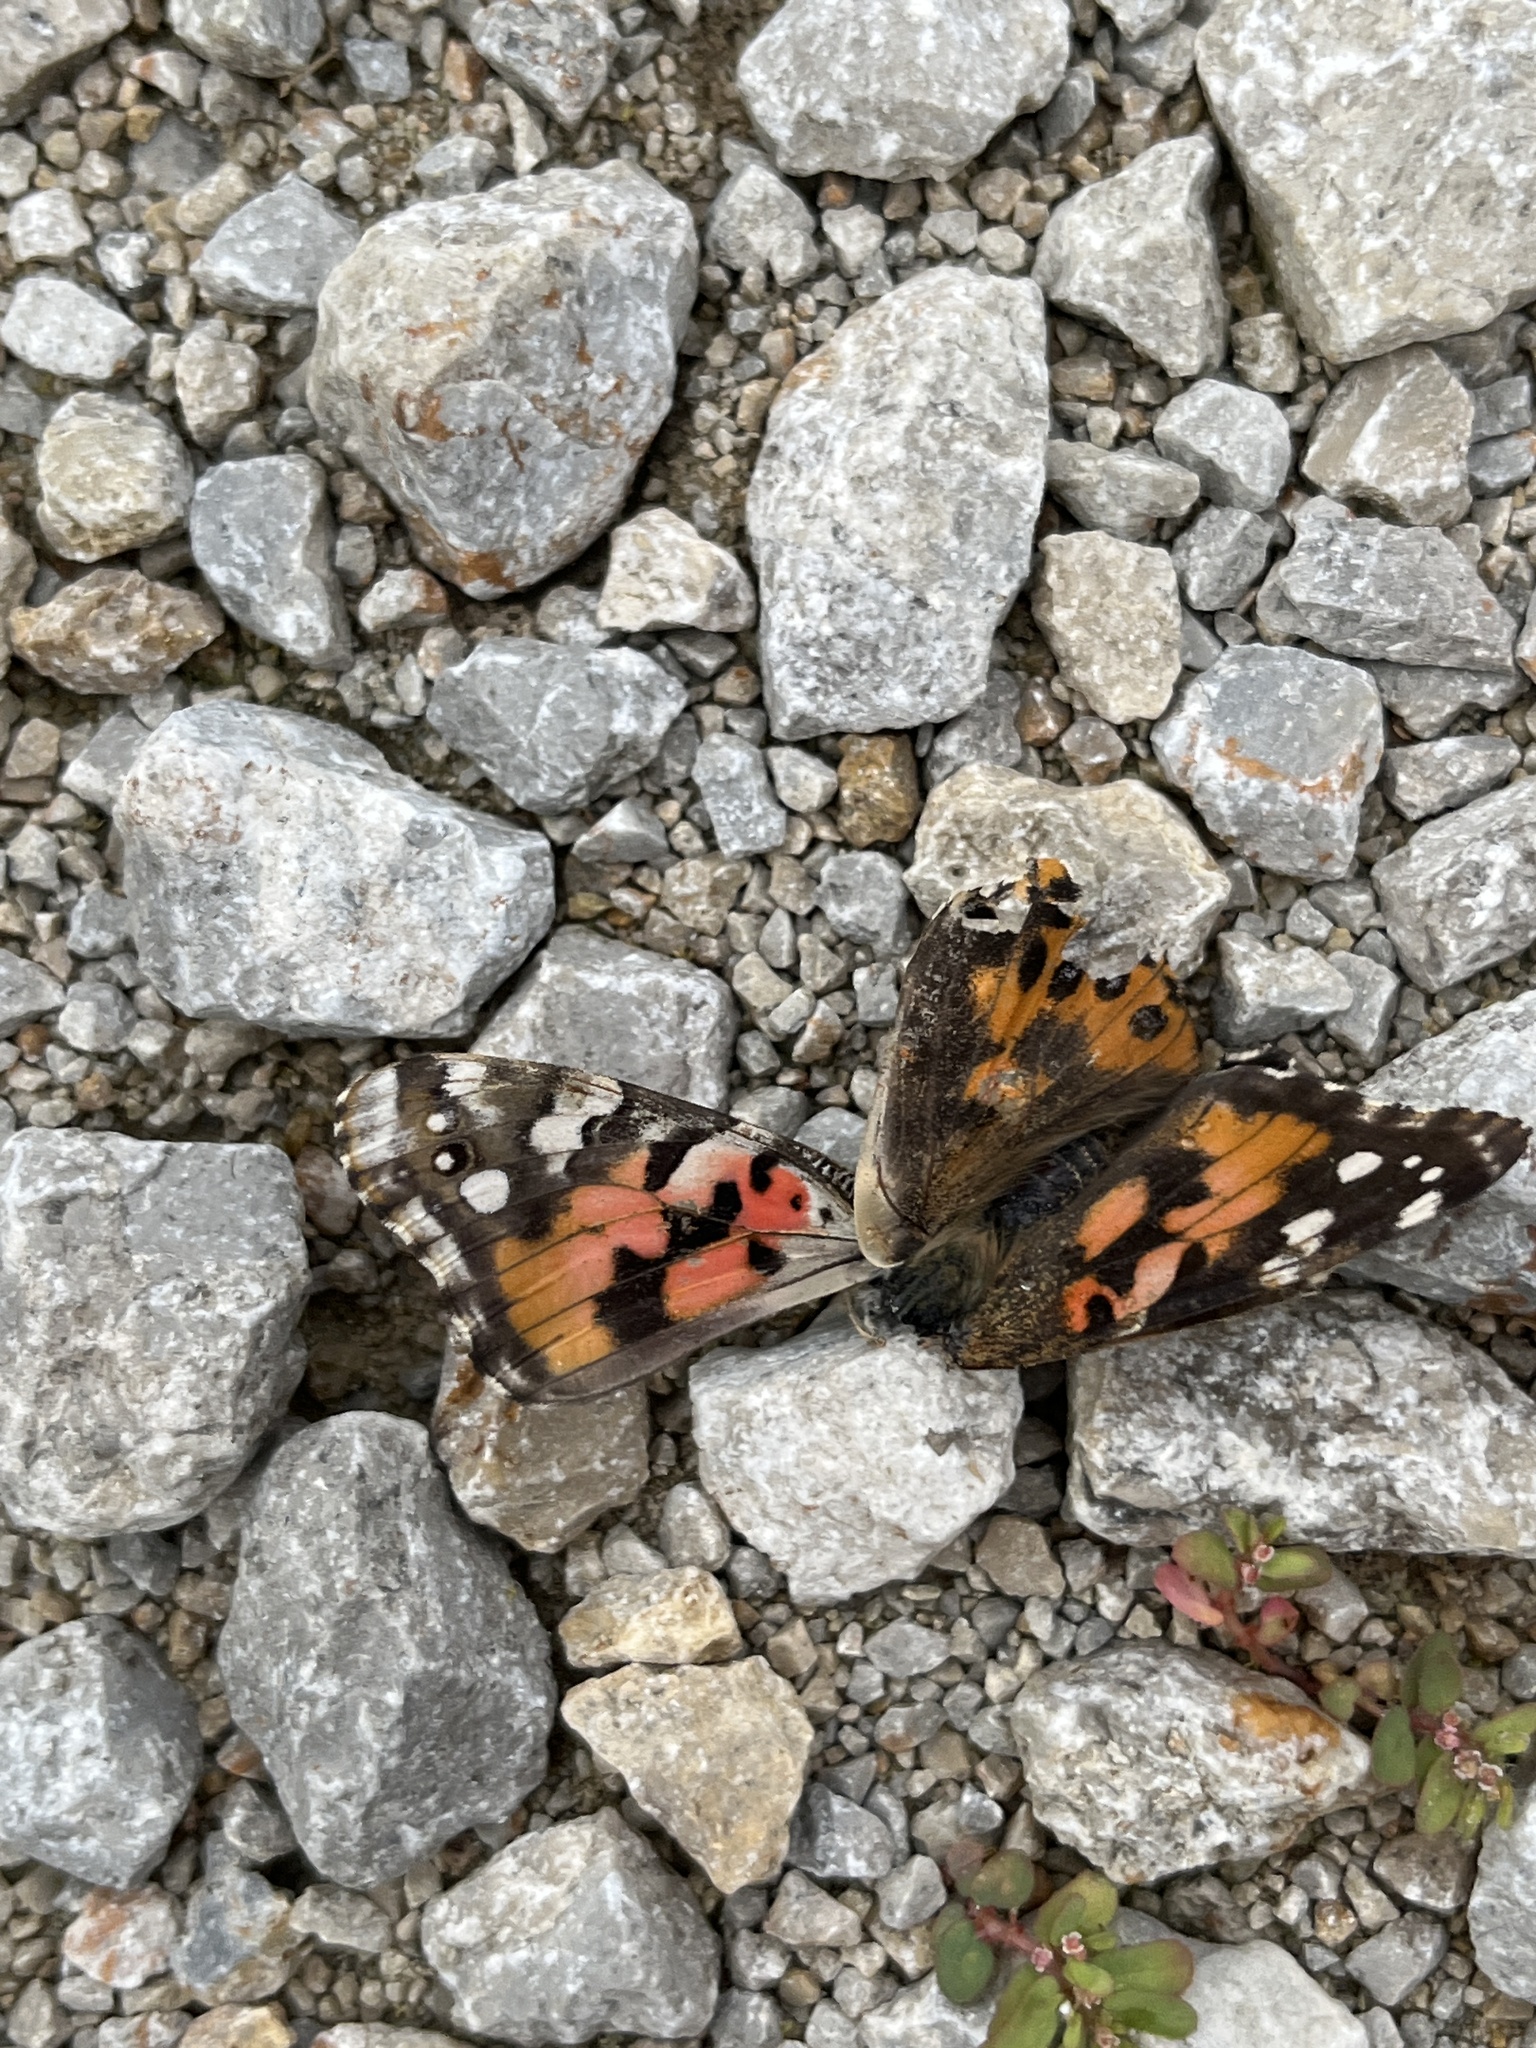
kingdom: Animalia
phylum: Arthropoda
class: Insecta
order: Lepidoptera
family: Nymphalidae
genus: Vanessa
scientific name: Vanessa cardui
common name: Painted lady
